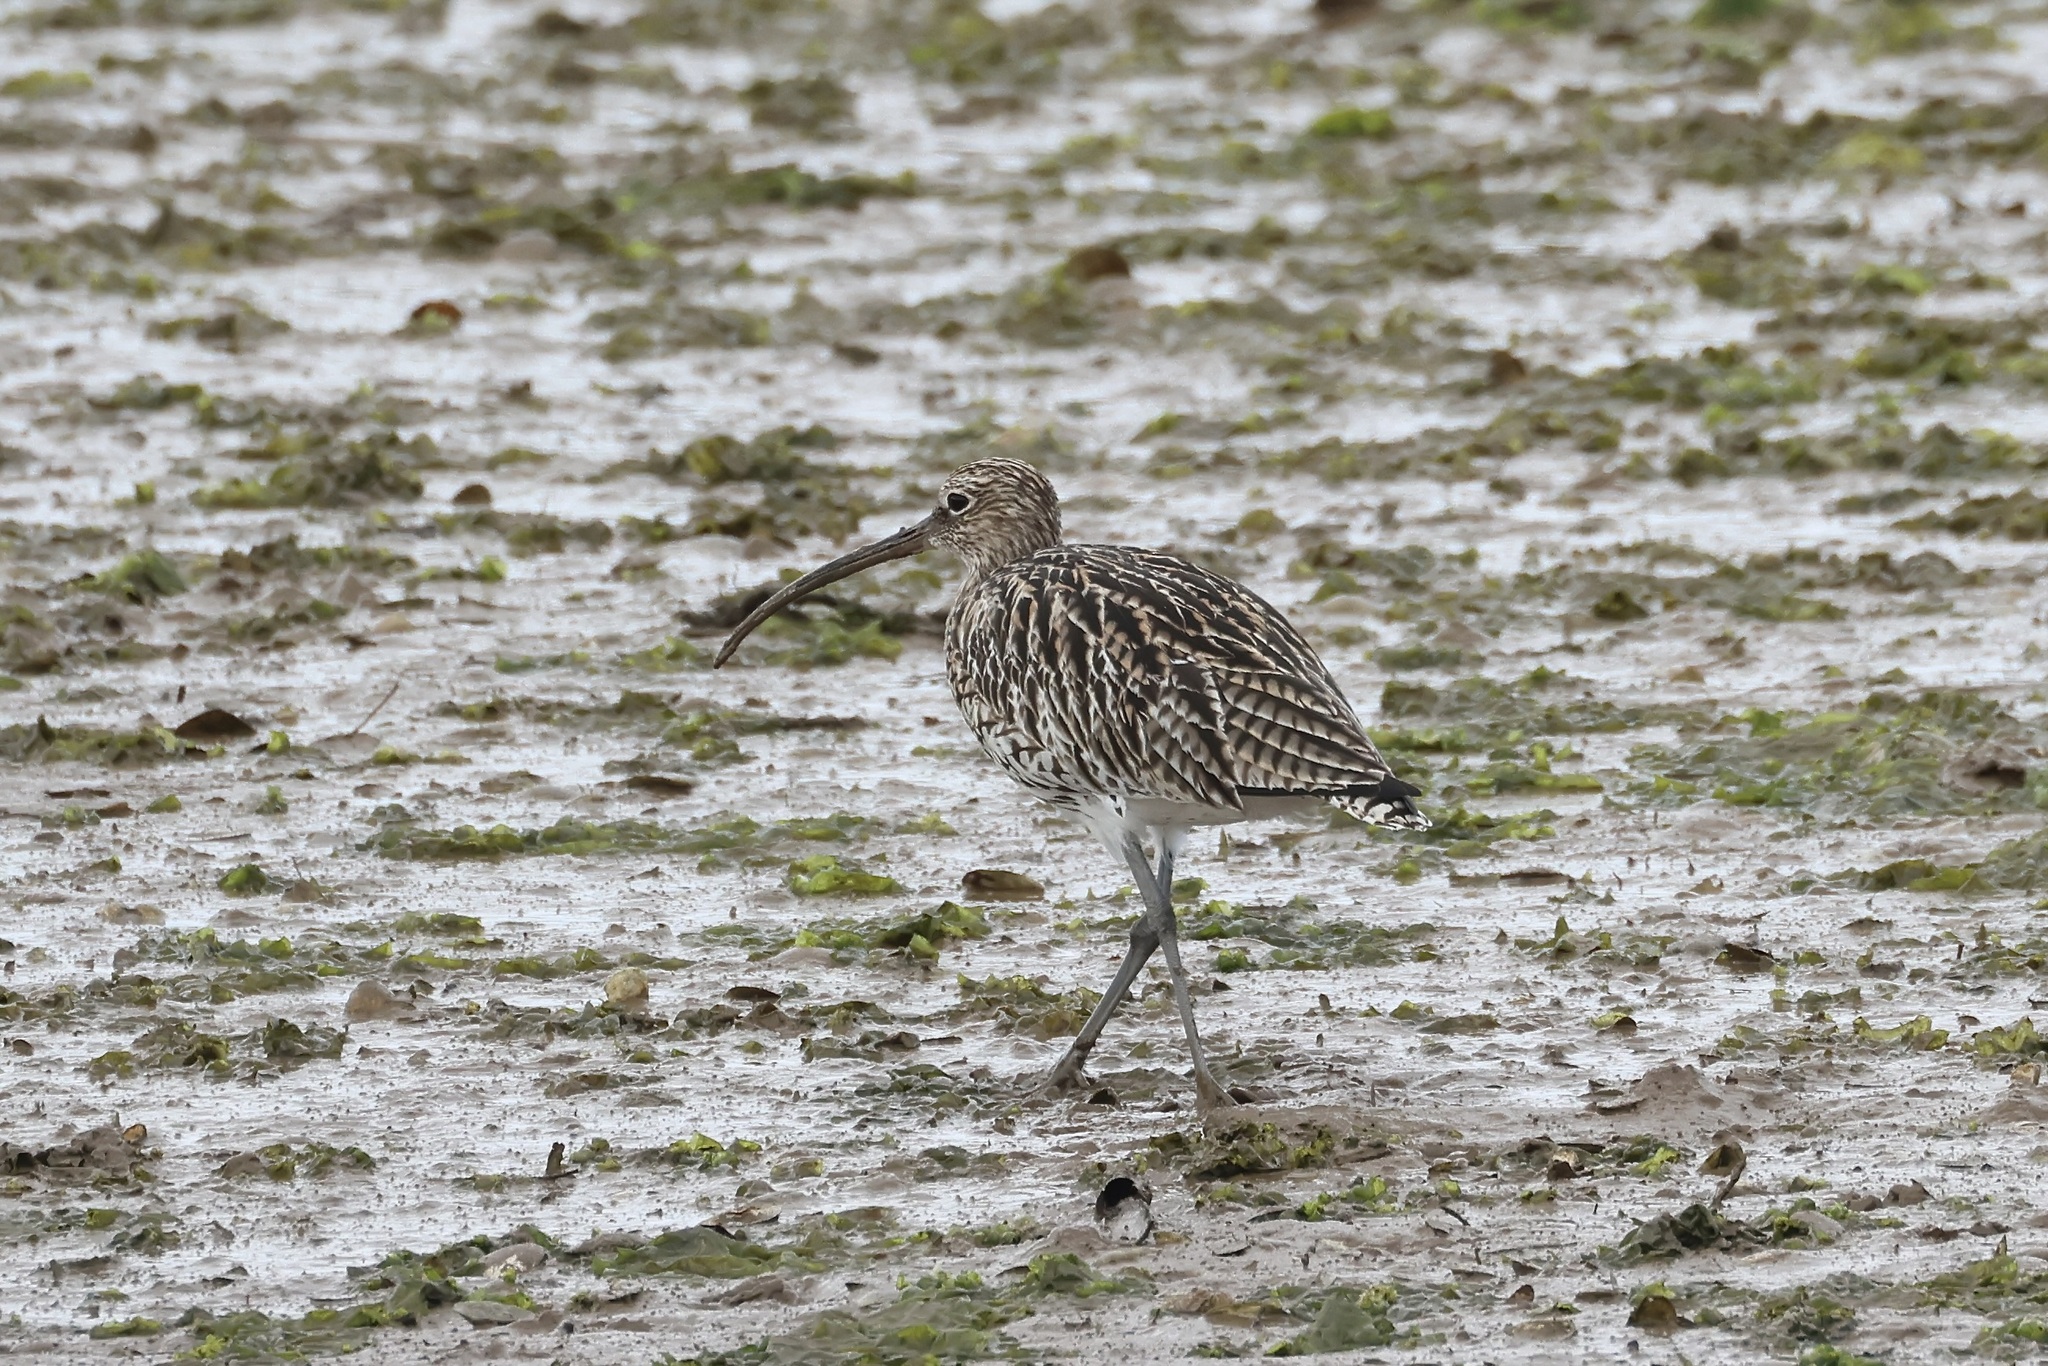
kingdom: Animalia
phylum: Chordata
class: Aves
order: Charadriiformes
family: Scolopacidae
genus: Numenius
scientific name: Numenius arquata
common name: Eurasian curlew
